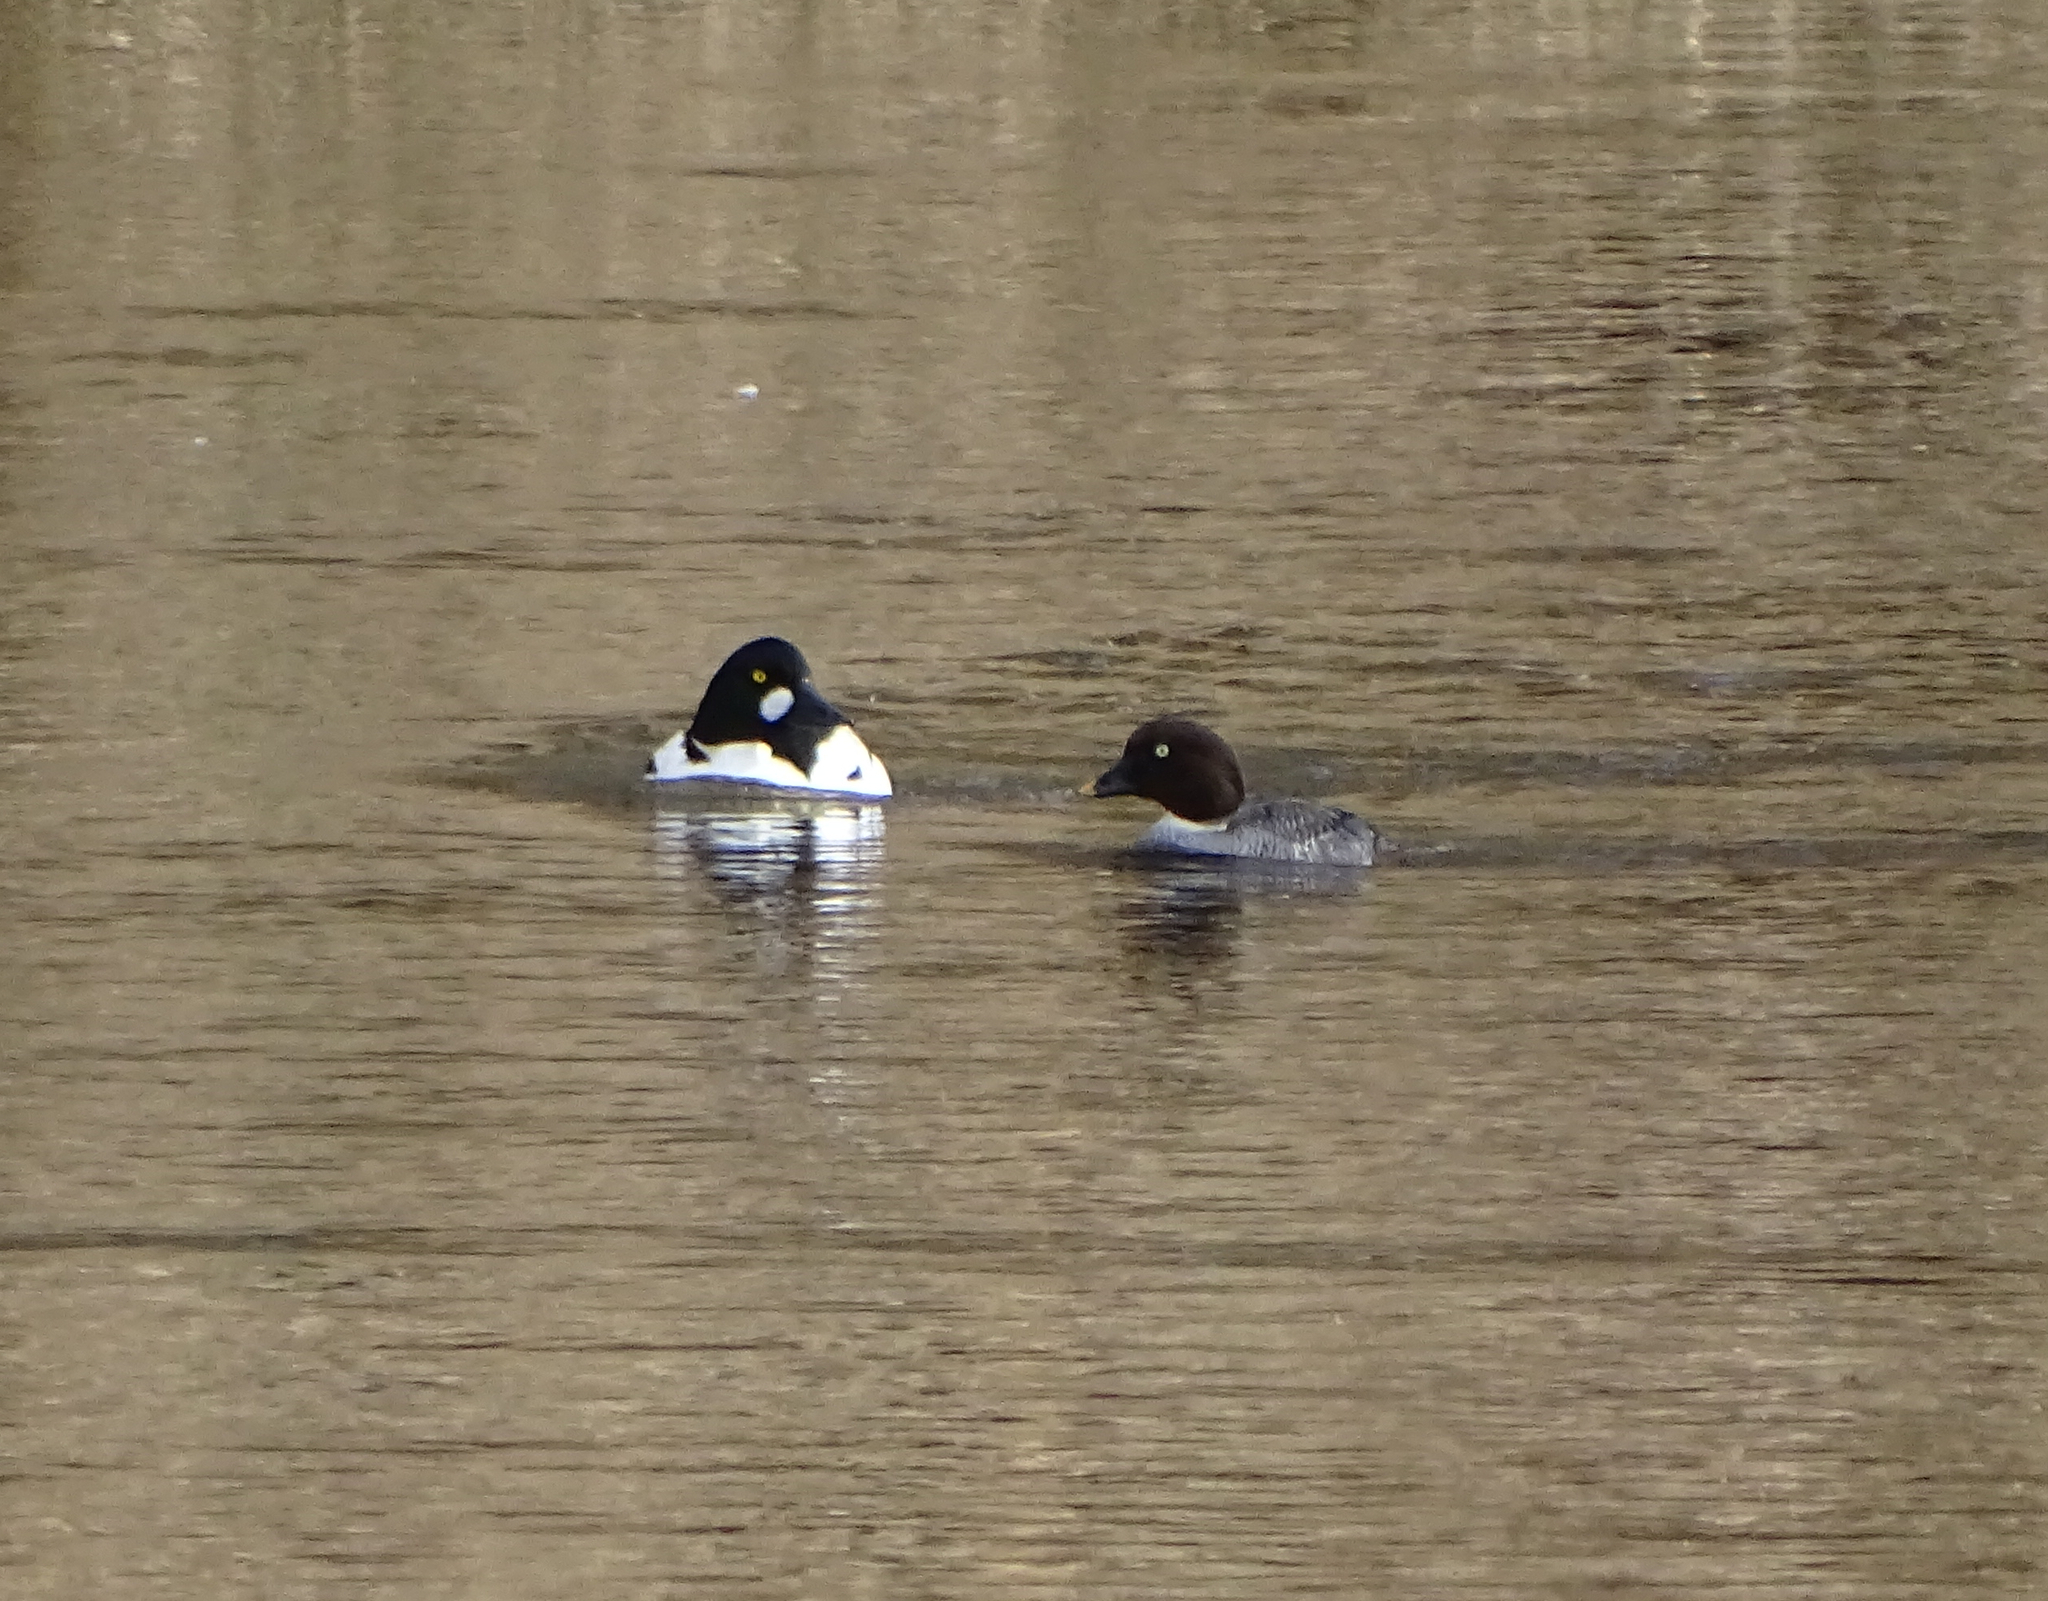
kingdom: Animalia
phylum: Chordata
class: Aves
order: Anseriformes
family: Anatidae
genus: Bucephala
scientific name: Bucephala clangula
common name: Common goldeneye
